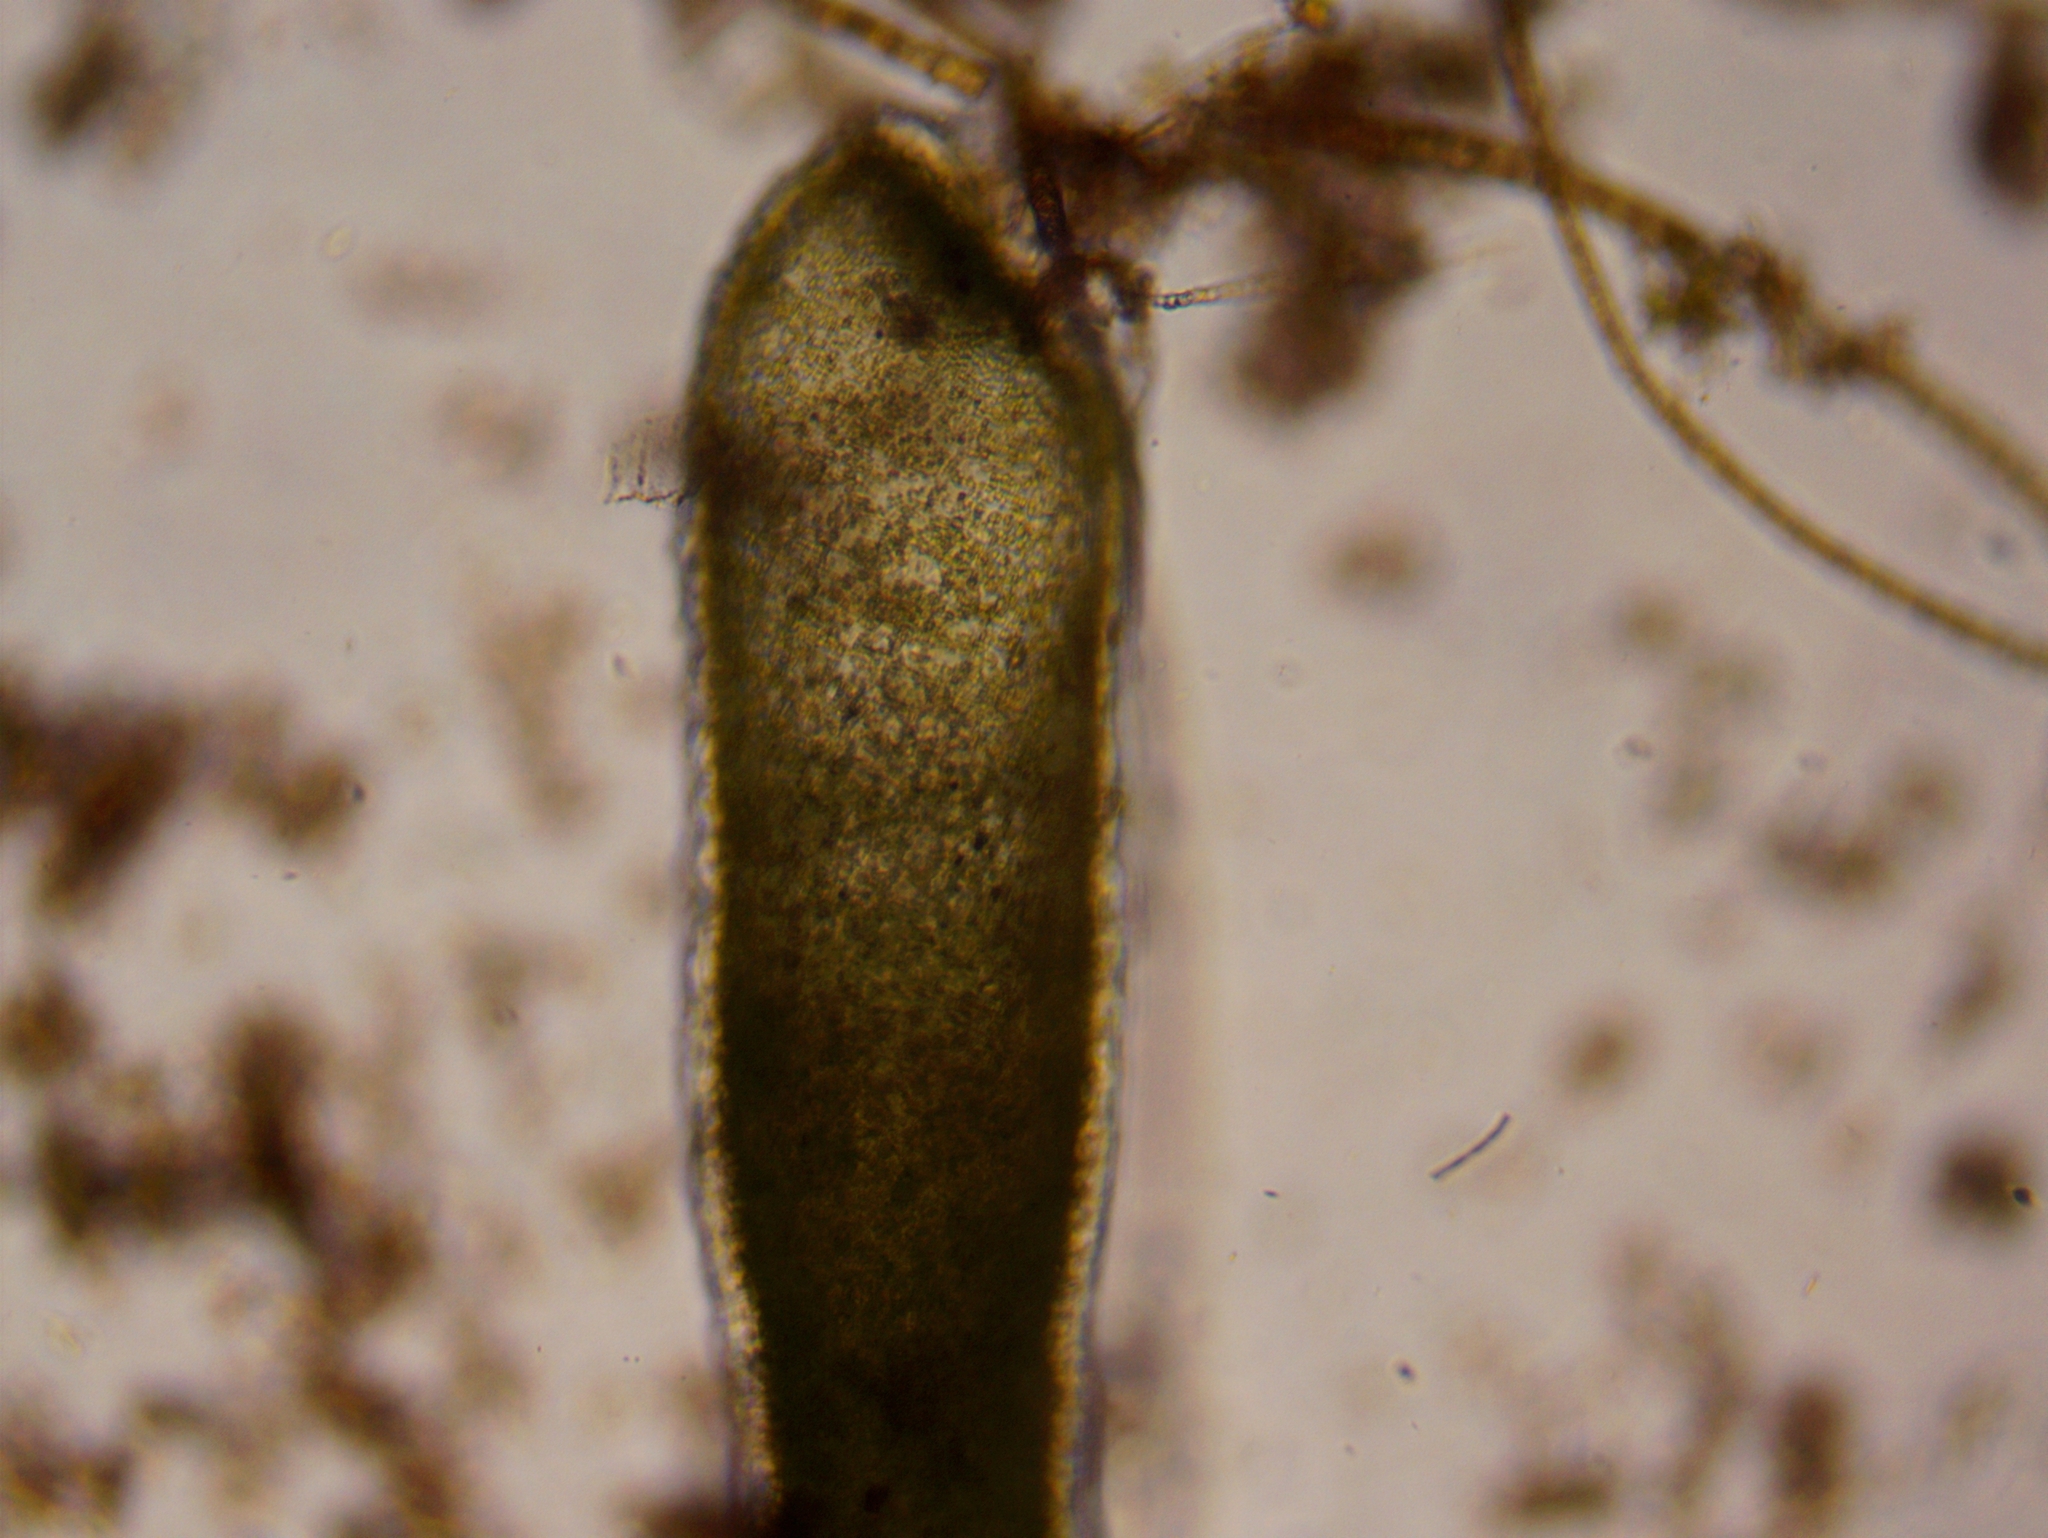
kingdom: Animalia
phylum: Cnidaria
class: Hydrozoa
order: Anthoathecata
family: Hydridae
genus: Hydra
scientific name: Hydra viridissima
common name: Green hydra
